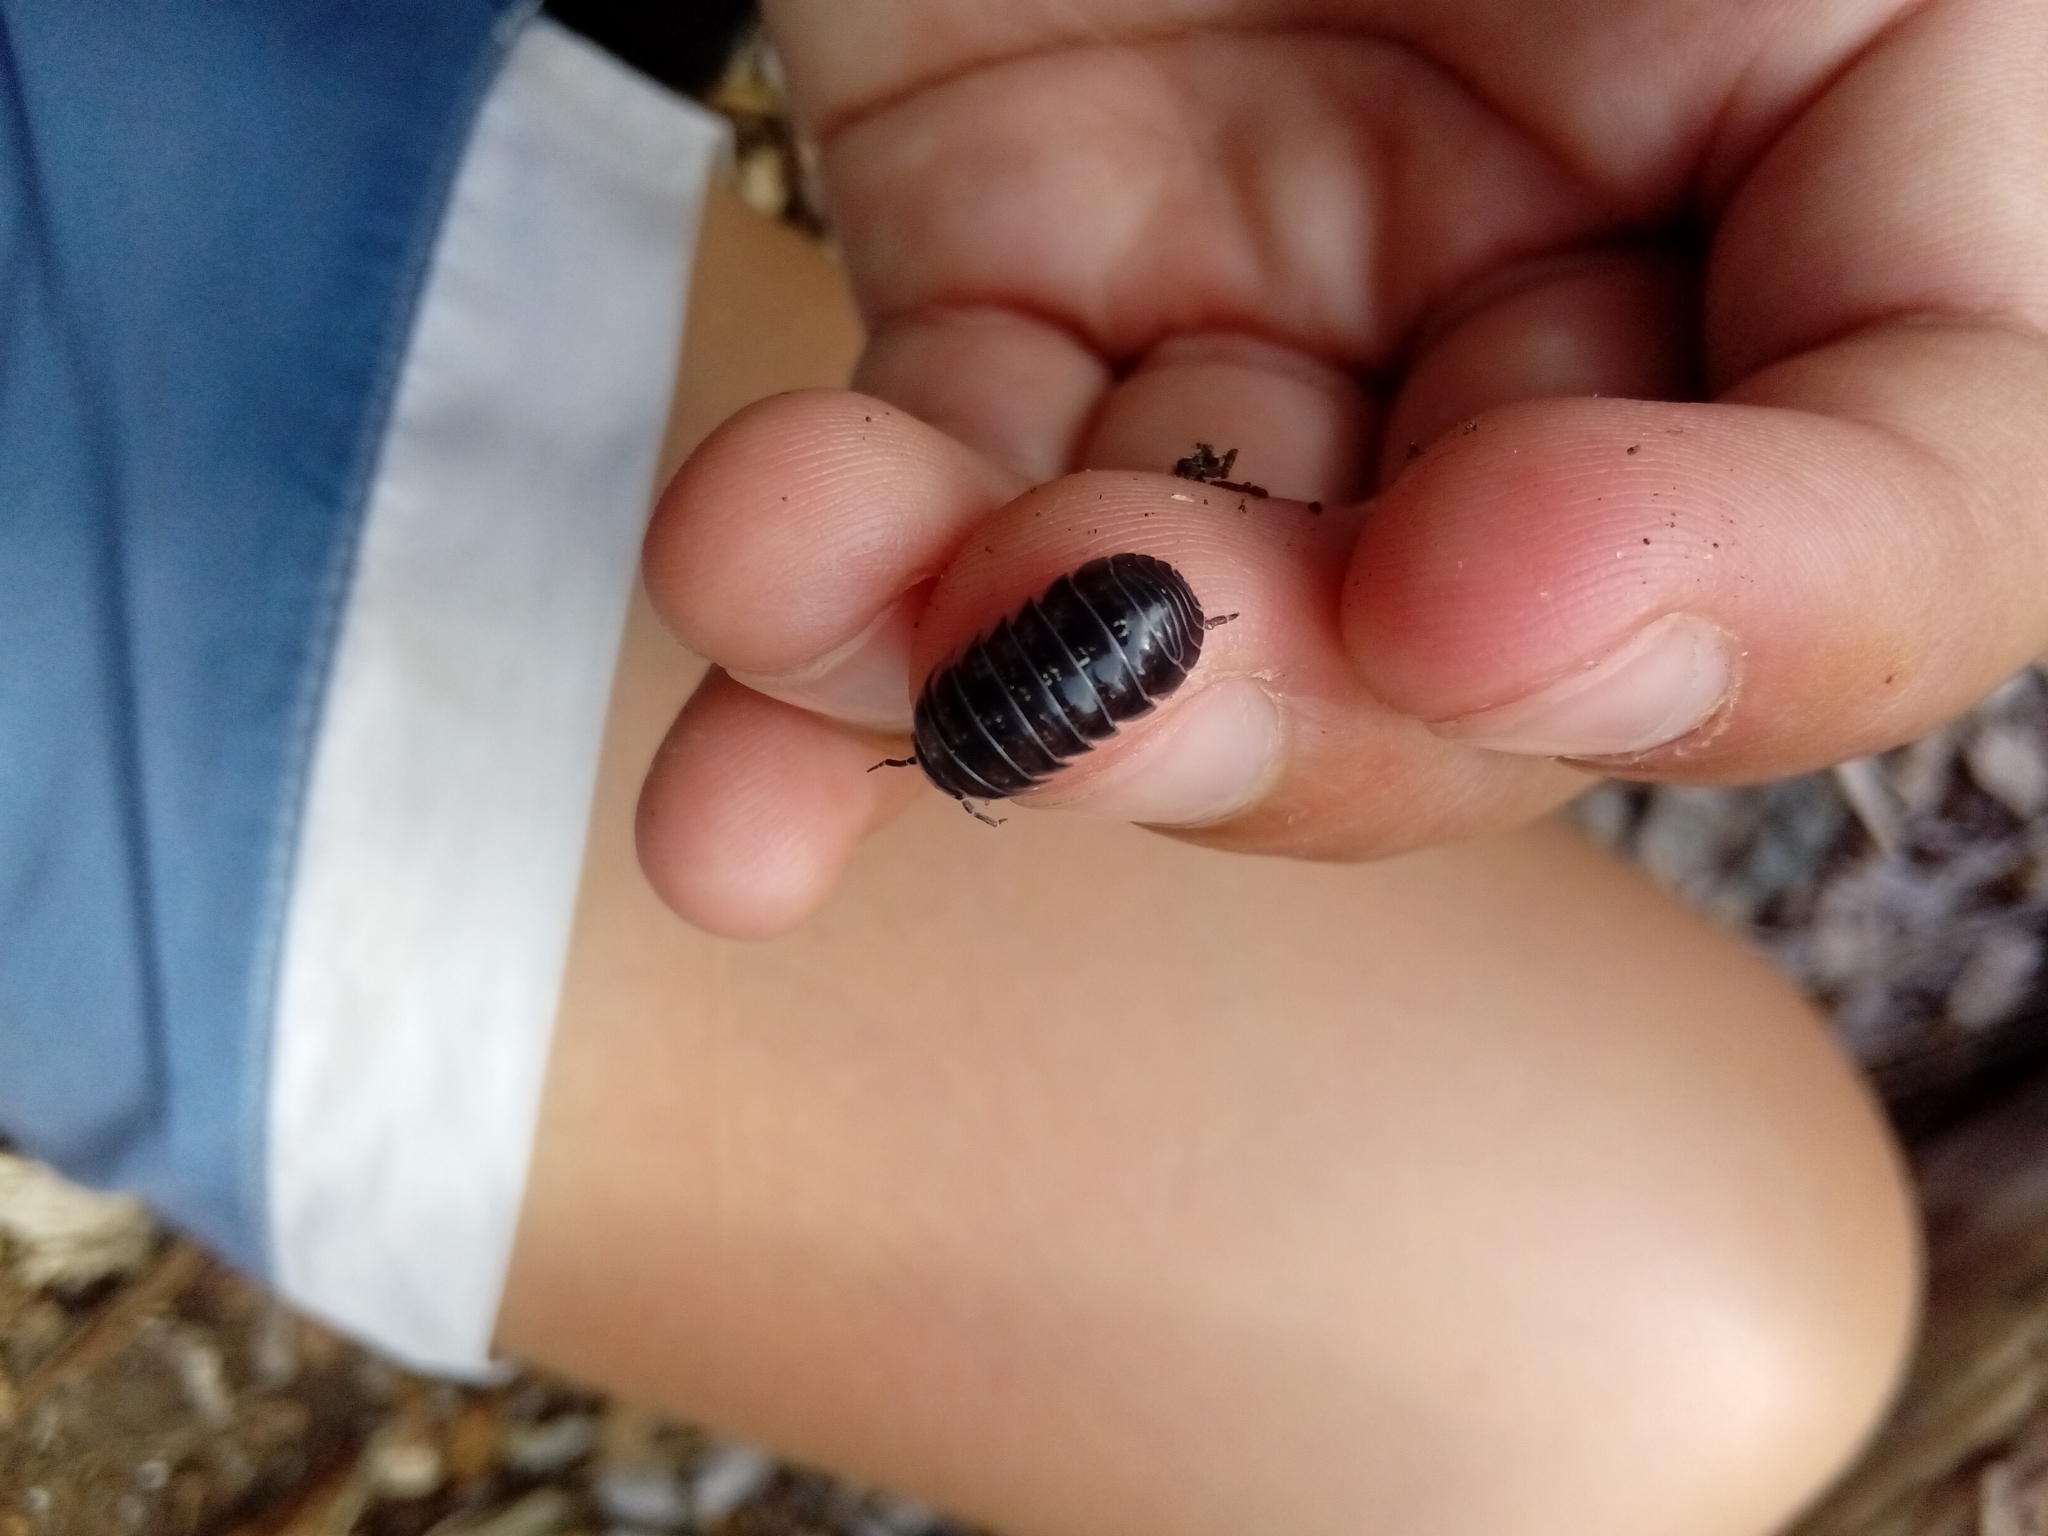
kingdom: Animalia
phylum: Arthropoda
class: Malacostraca
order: Isopoda
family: Armadillidiidae
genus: Armadillidium
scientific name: Armadillidium vulgare
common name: Common pill woodlouse
